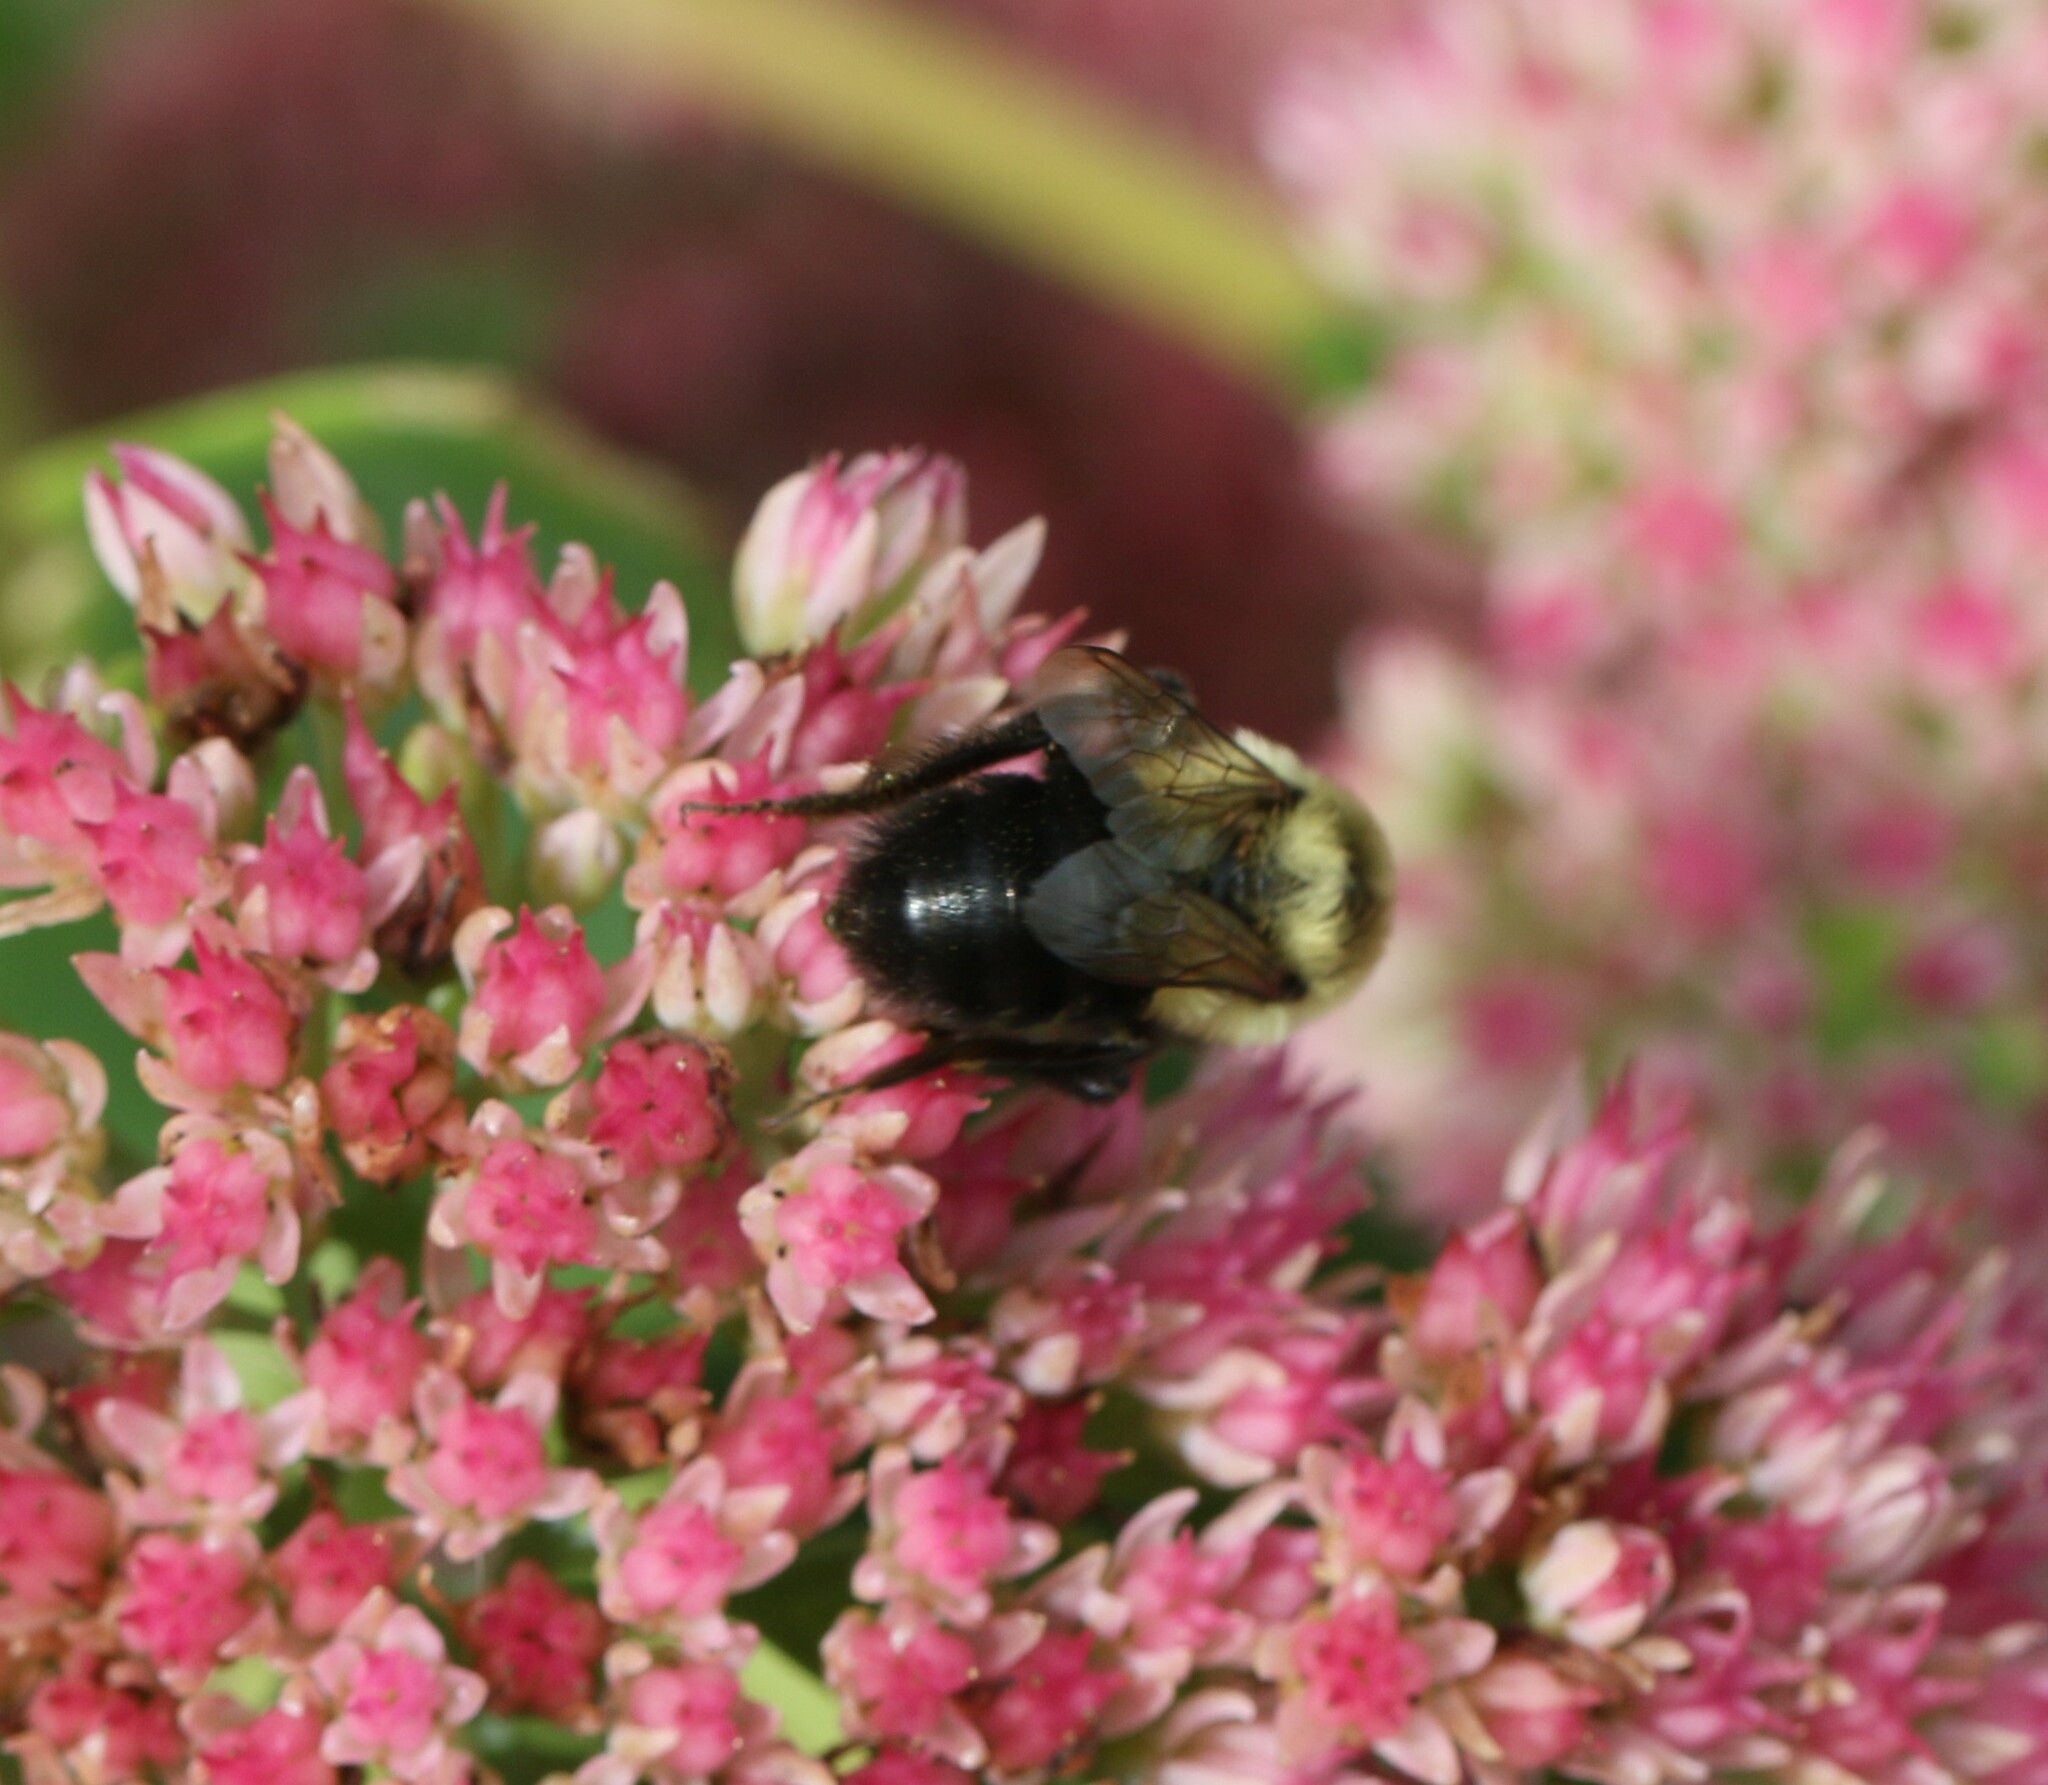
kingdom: Animalia
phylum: Arthropoda
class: Insecta
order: Hymenoptera
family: Apidae
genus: Bombus
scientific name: Bombus impatiens
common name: Common eastern bumble bee
